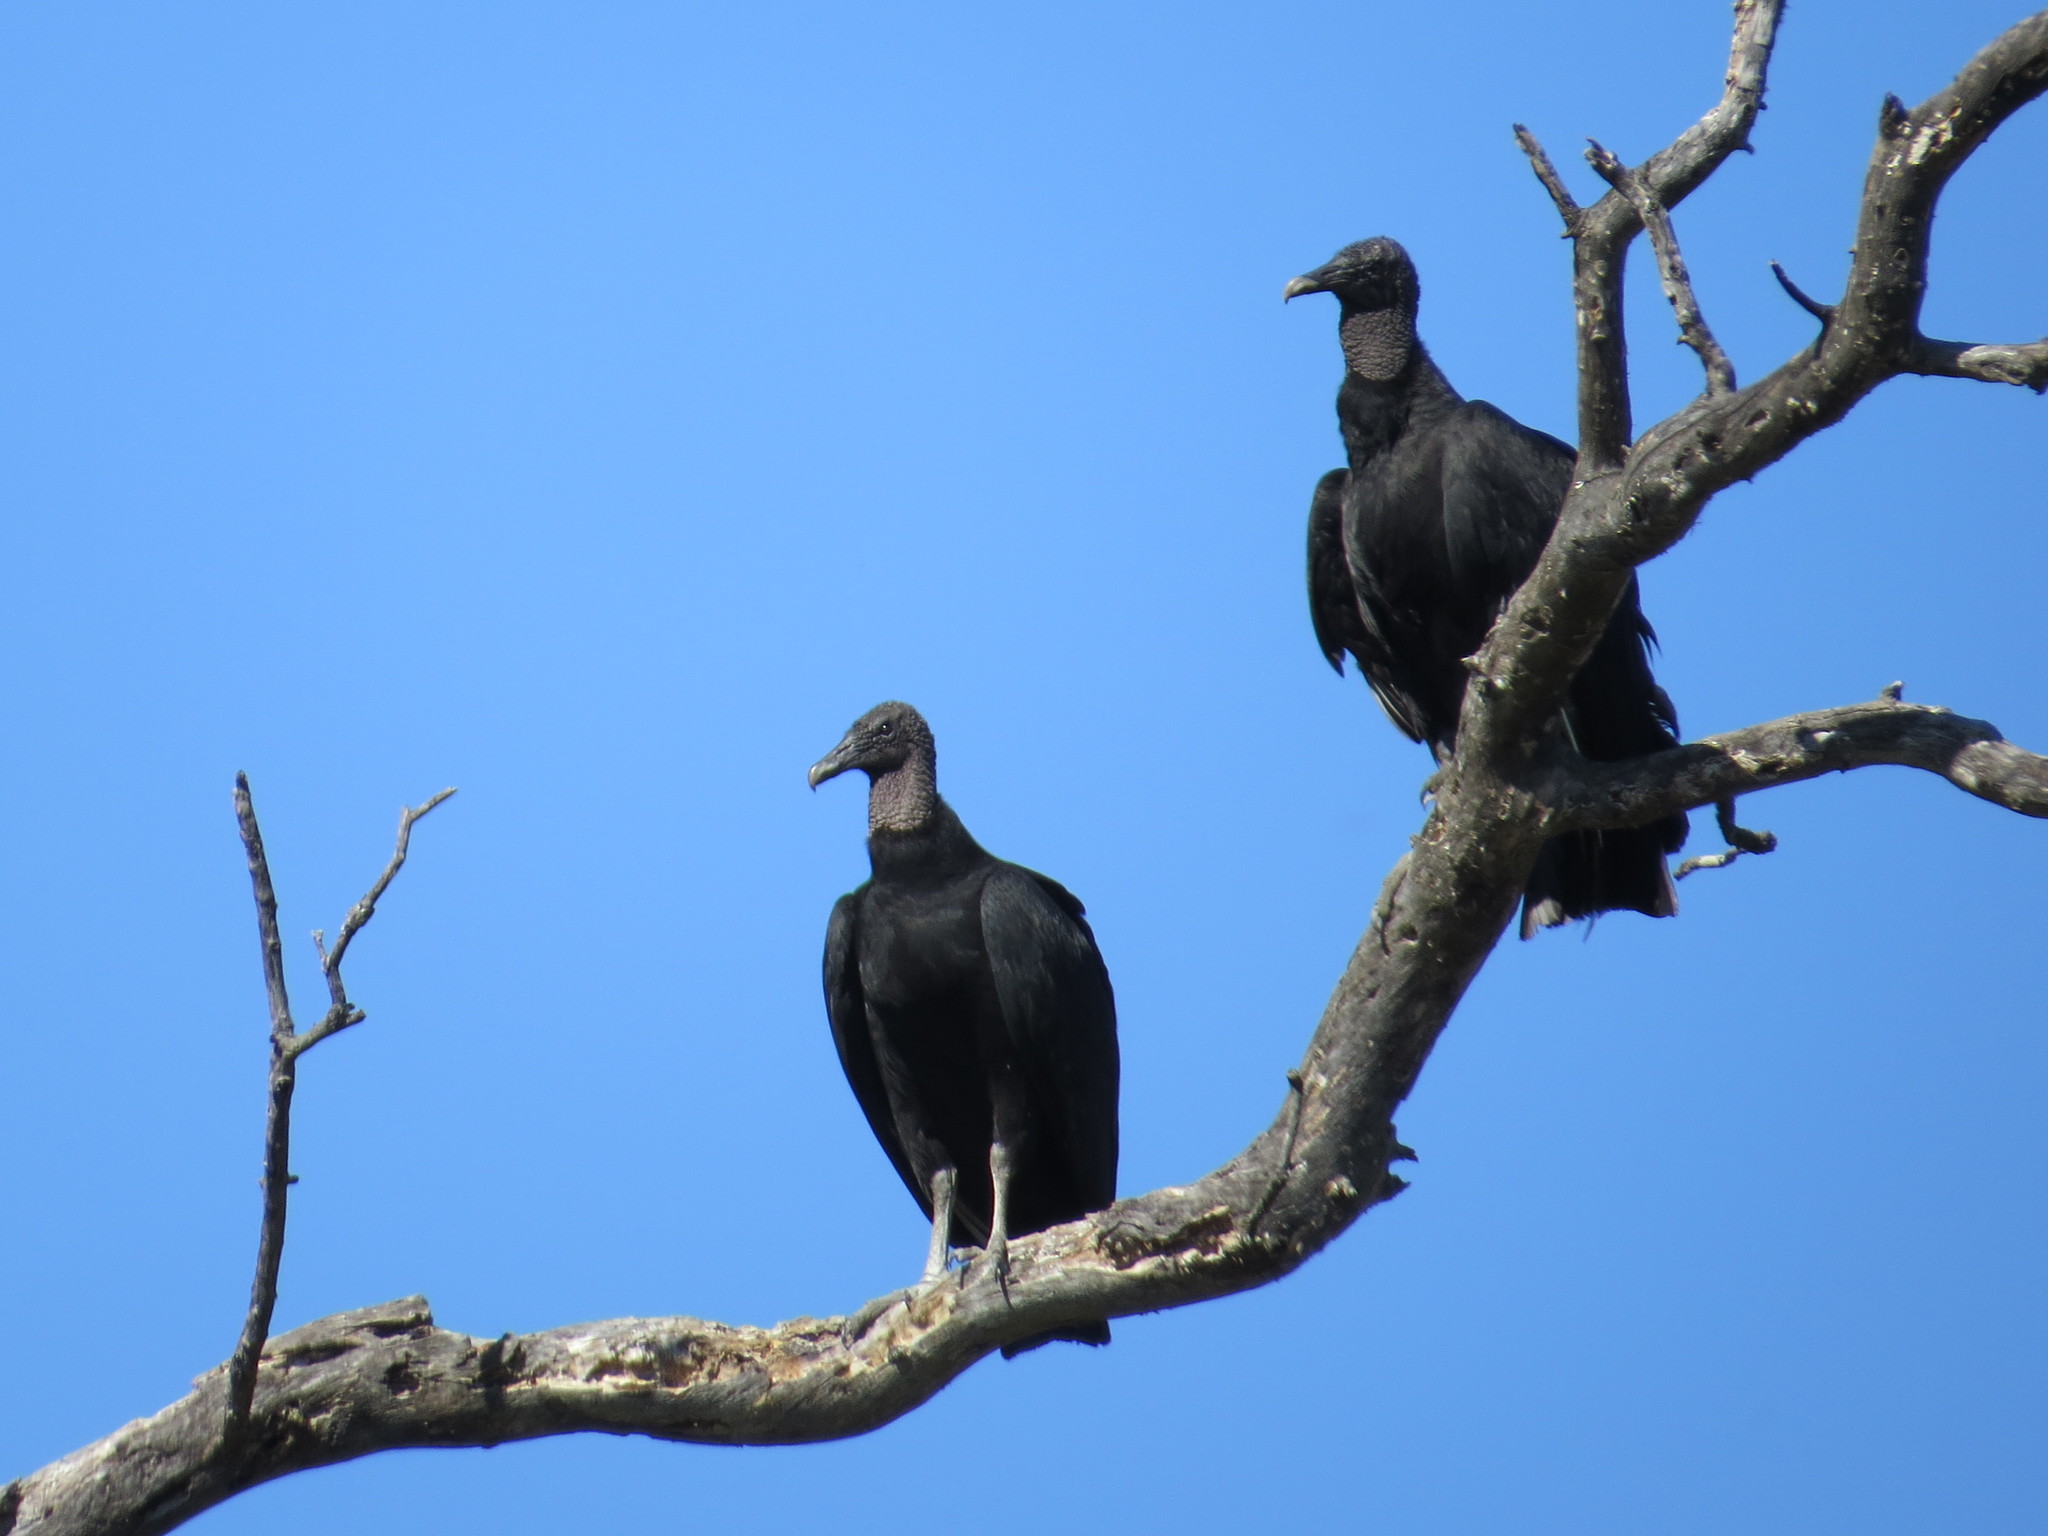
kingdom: Animalia
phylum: Chordata
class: Aves
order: Accipitriformes
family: Cathartidae
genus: Coragyps
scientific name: Coragyps atratus
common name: Black vulture
